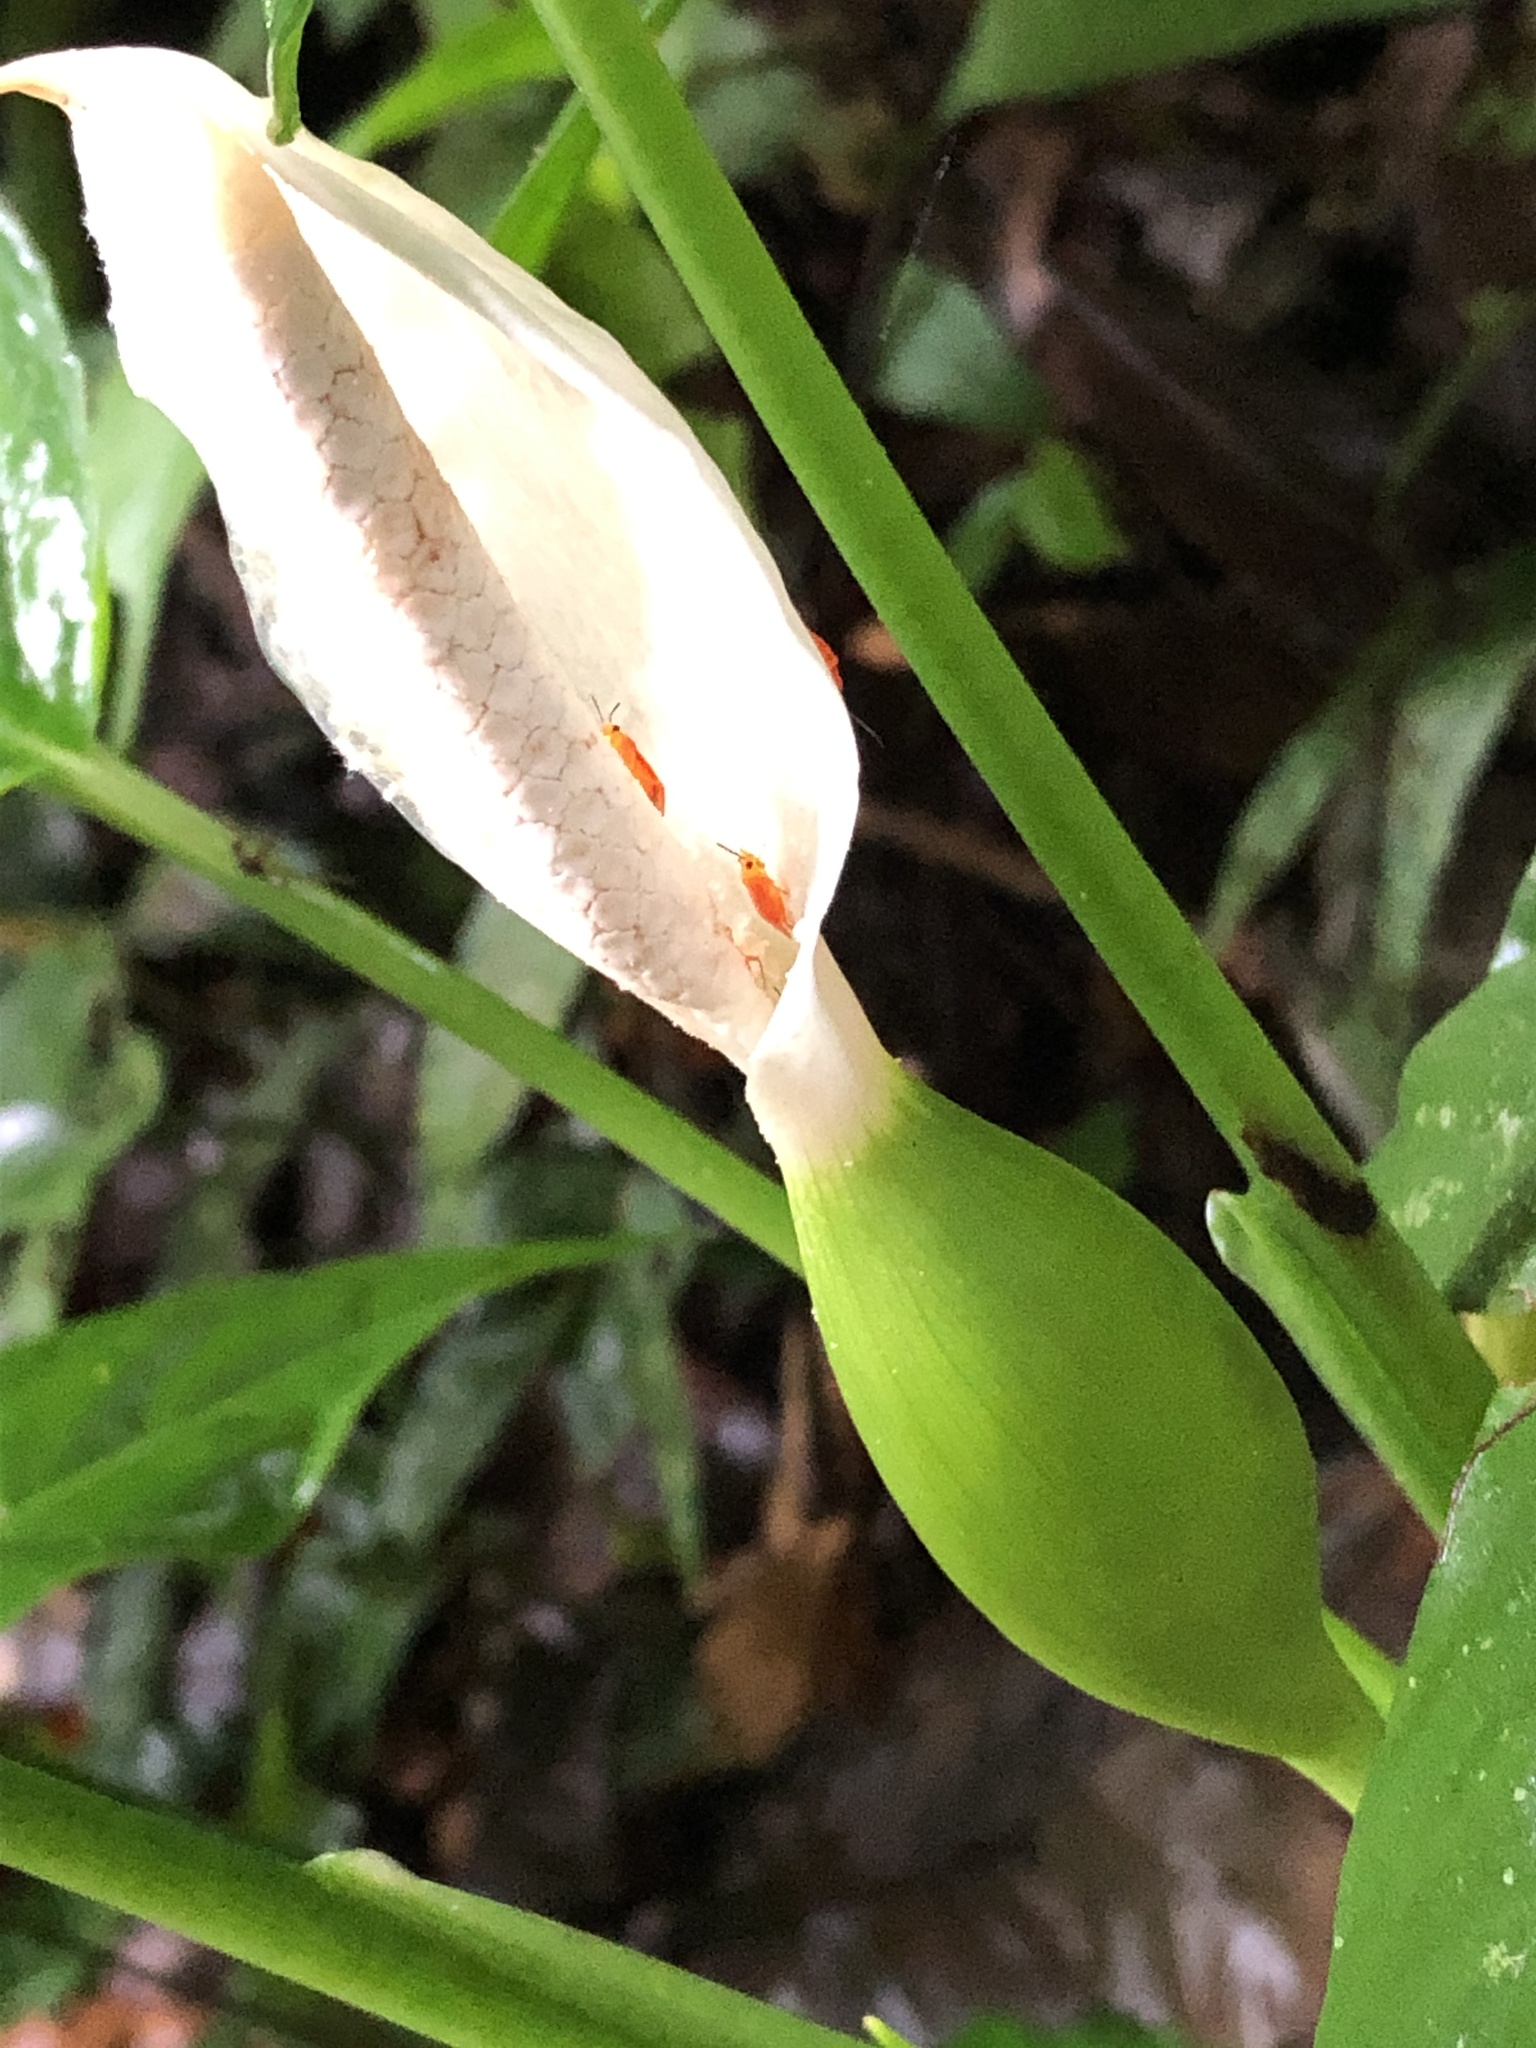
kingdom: Plantae
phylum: Tracheophyta
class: Liliopsida
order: Alismatales
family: Araceae
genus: Xanthosoma
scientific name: Xanthosoma viviparum
